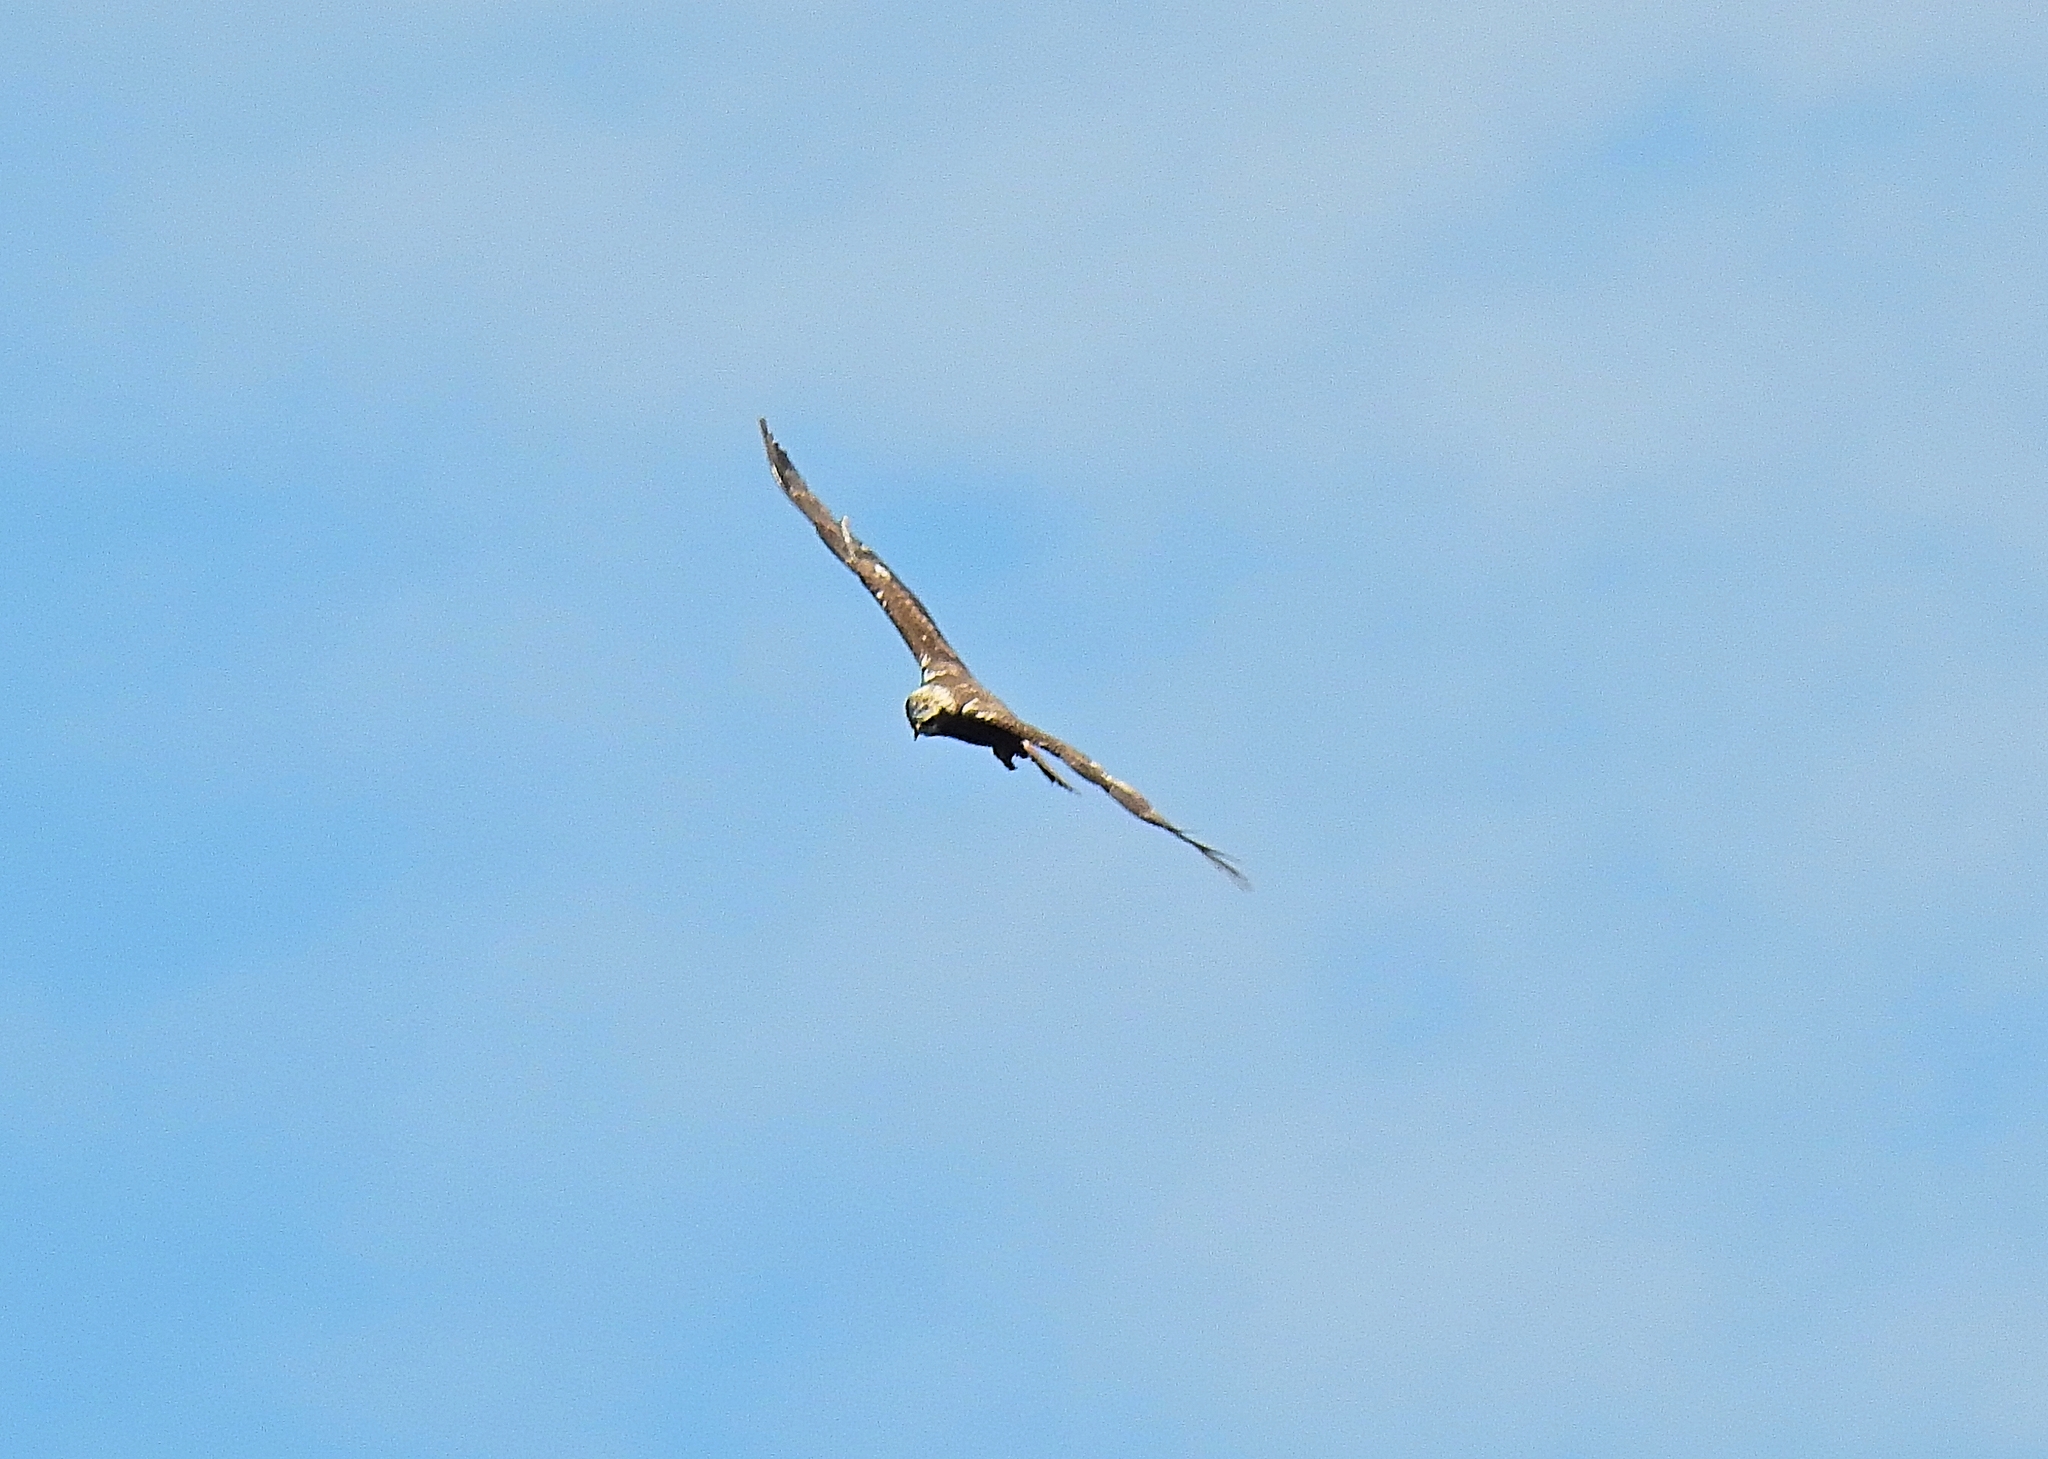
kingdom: Animalia
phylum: Chordata
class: Aves
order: Accipitriformes
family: Accipitridae
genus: Circus
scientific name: Circus aeruginosus
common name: Western marsh harrier
